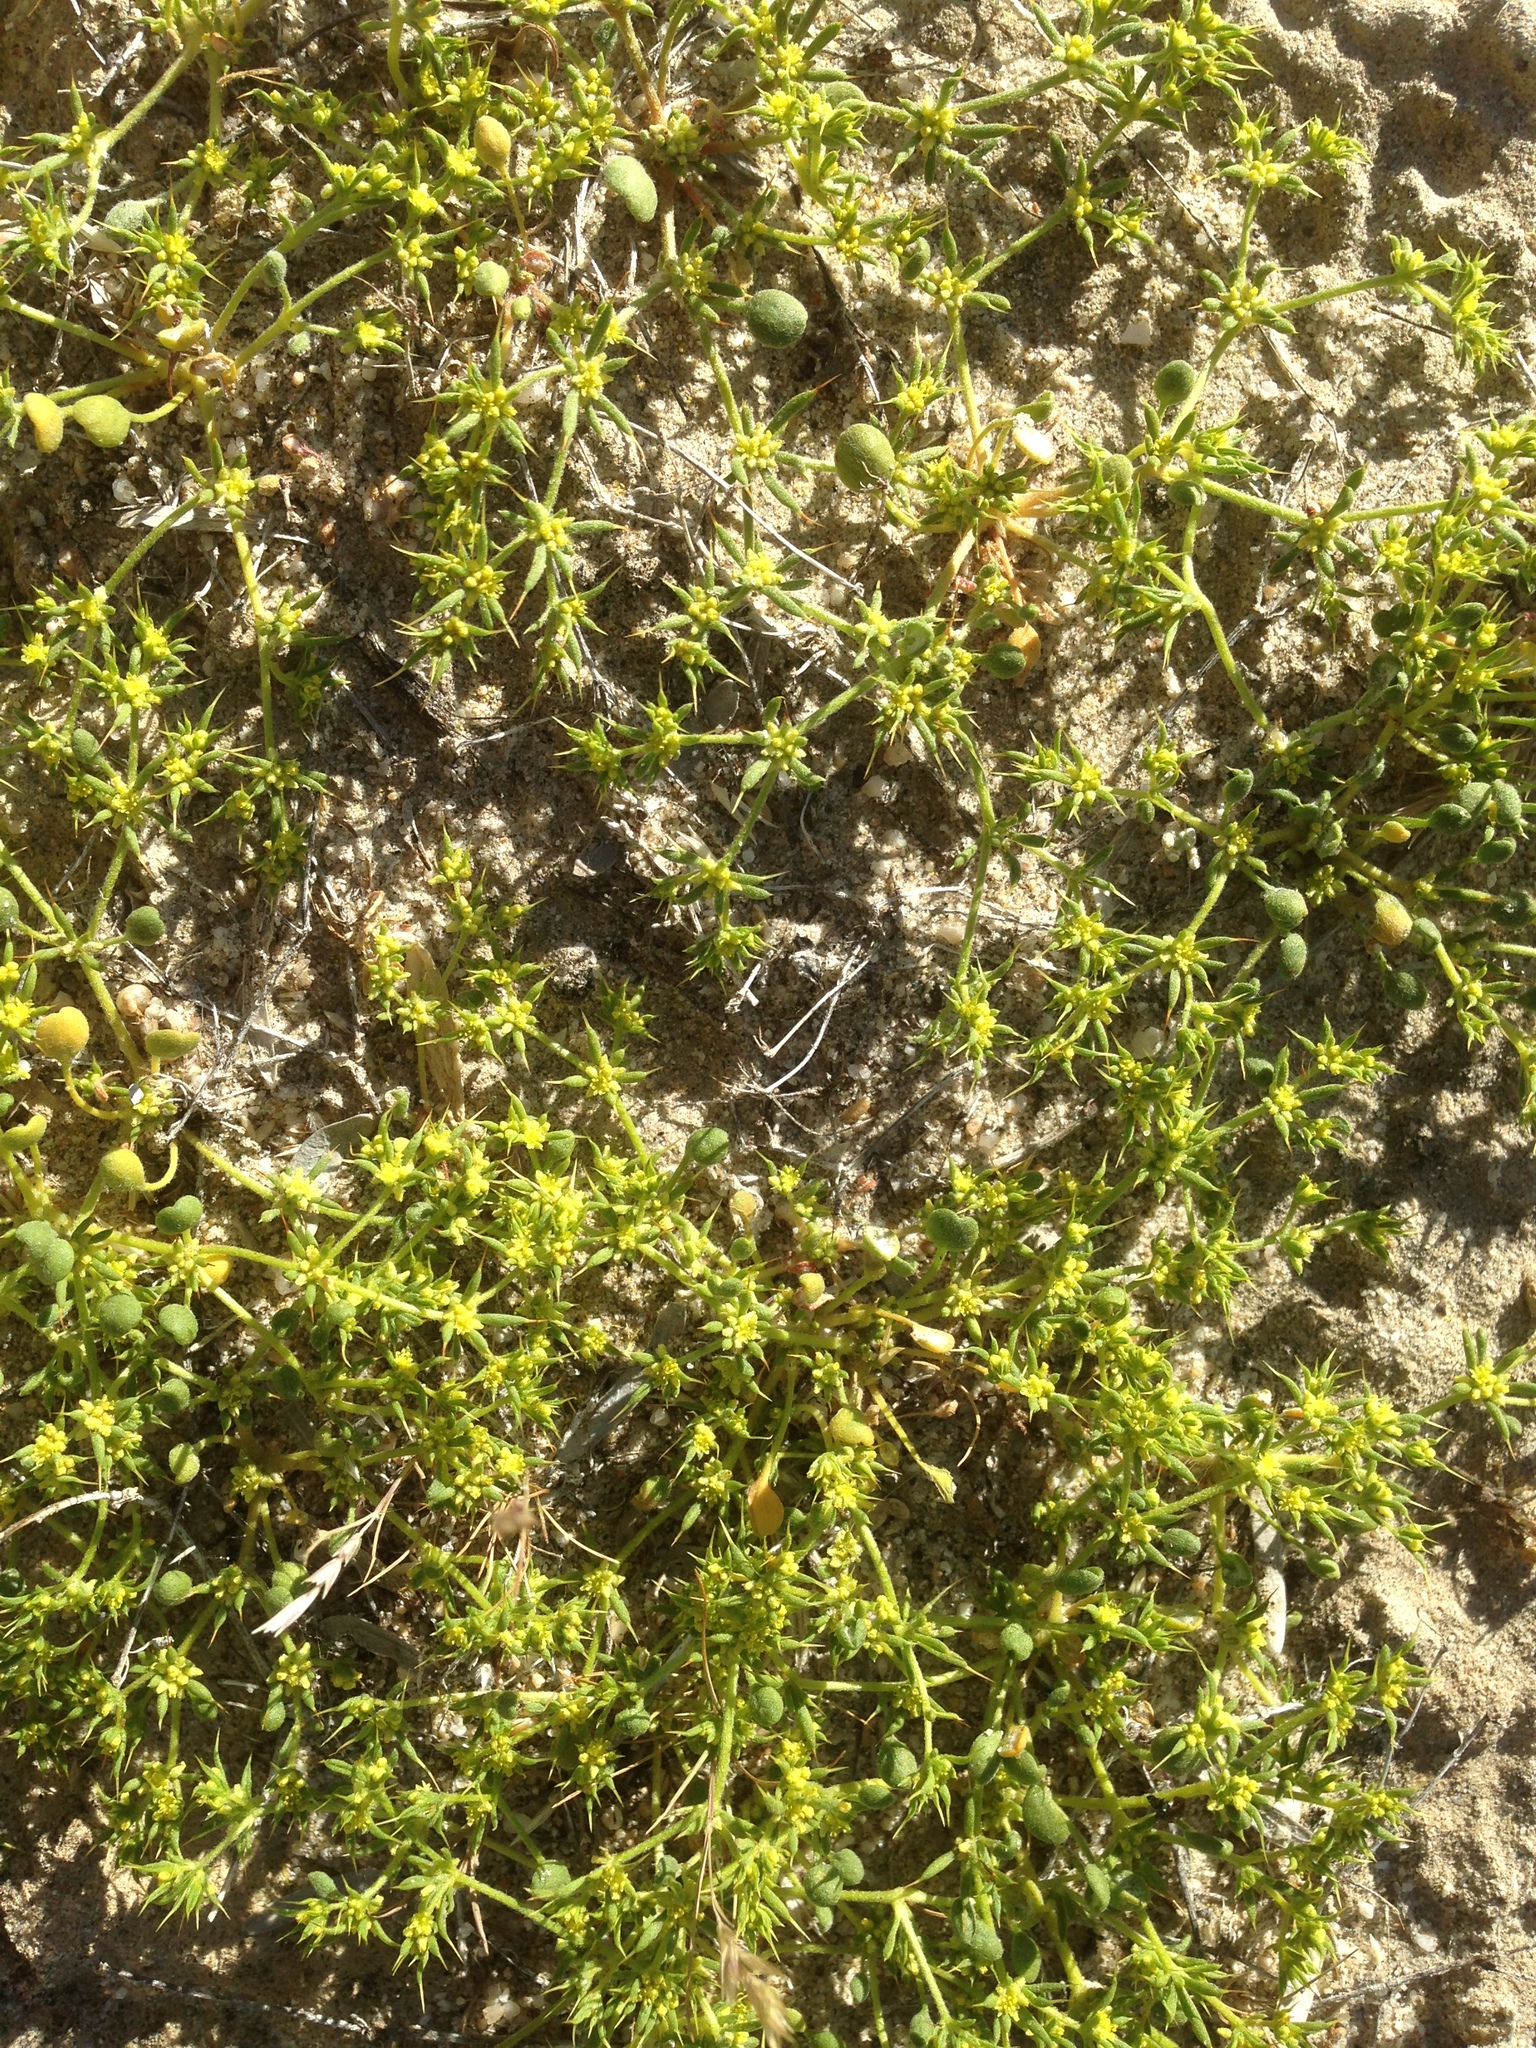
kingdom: Plantae
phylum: Tracheophyta
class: Magnoliopsida
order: Caryophyllales
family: Polygonaceae
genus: Goodmania
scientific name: Goodmania luteola
